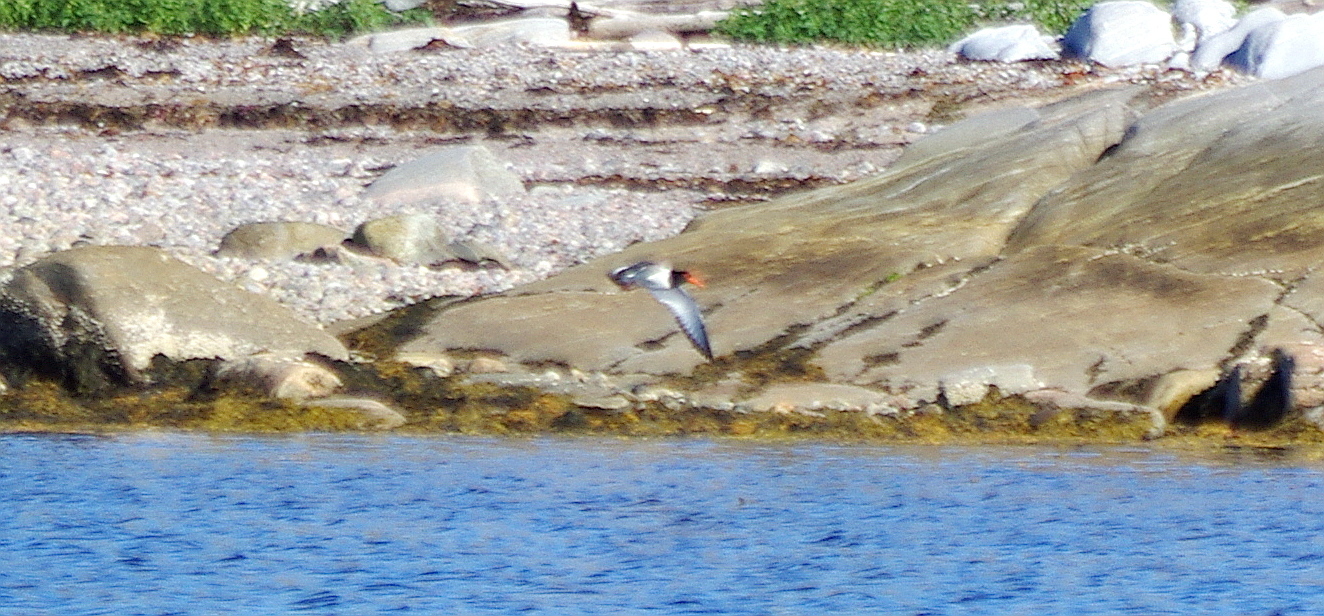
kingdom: Animalia
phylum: Chordata
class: Aves
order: Charadriiformes
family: Haematopodidae
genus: Haematopus
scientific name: Haematopus ostralegus
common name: Eurasian oystercatcher
